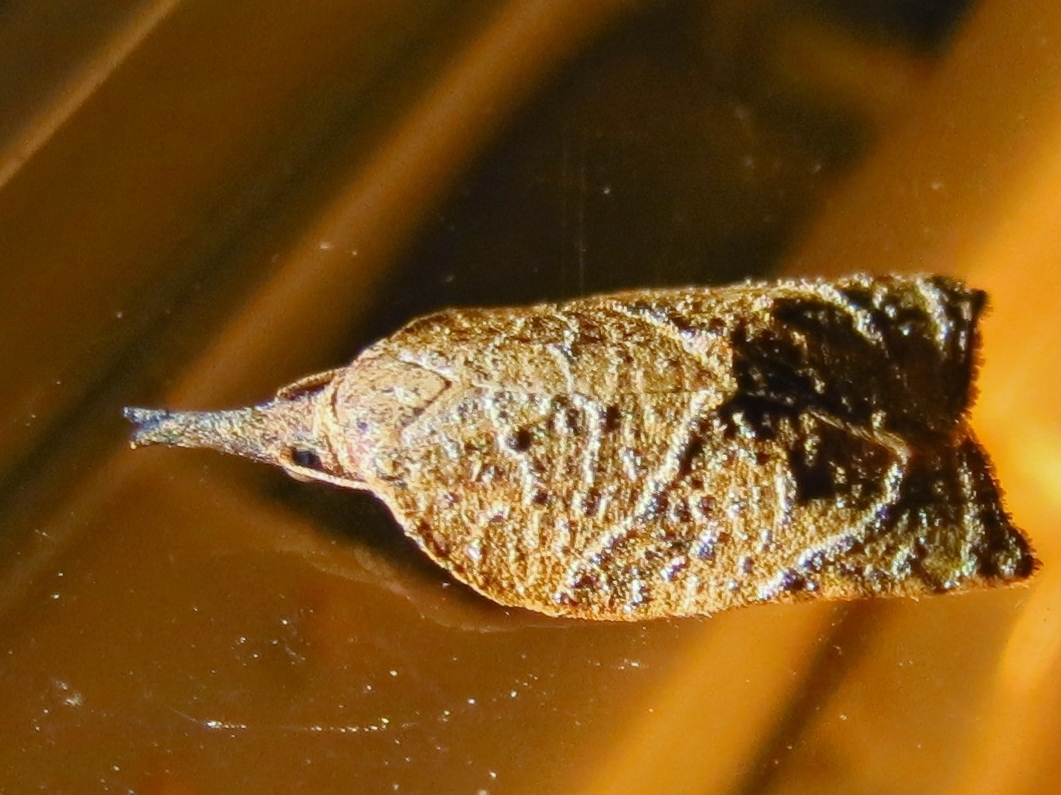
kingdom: Animalia
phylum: Arthropoda
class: Insecta
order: Lepidoptera
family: Tortricidae
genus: Platynota
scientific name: Platynota rostrana
